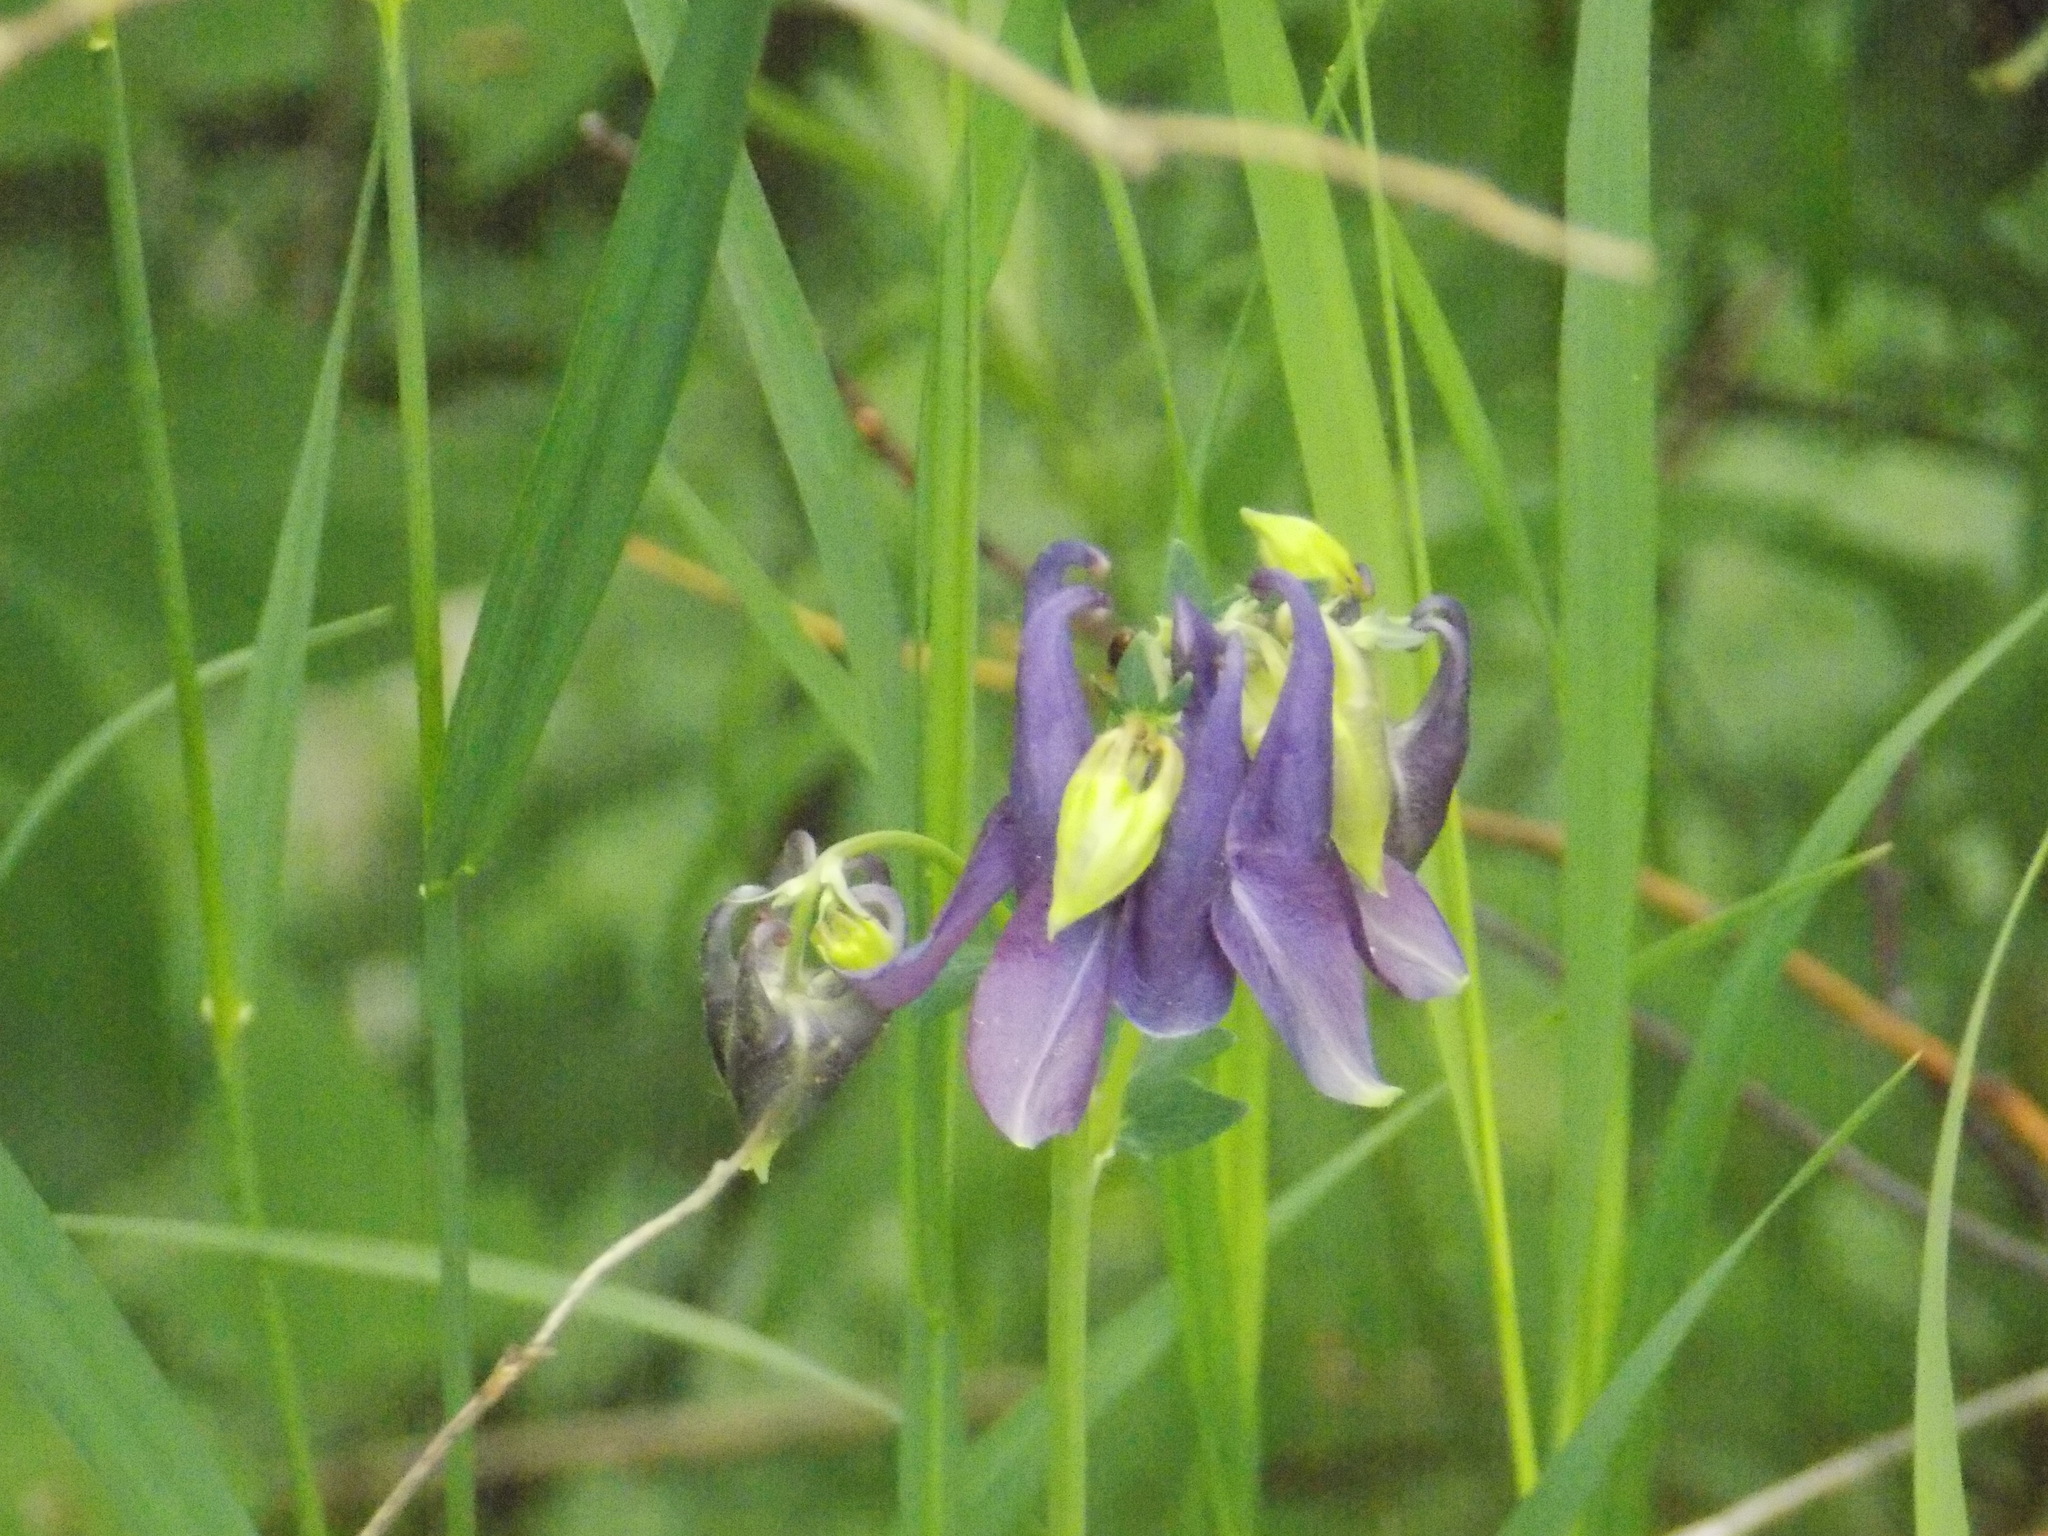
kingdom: Plantae
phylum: Tracheophyta
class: Magnoliopsida
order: Ranunculales
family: Ranunculaceae
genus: Aquilegia
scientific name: Aquilegia vulgaris
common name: Columbine
